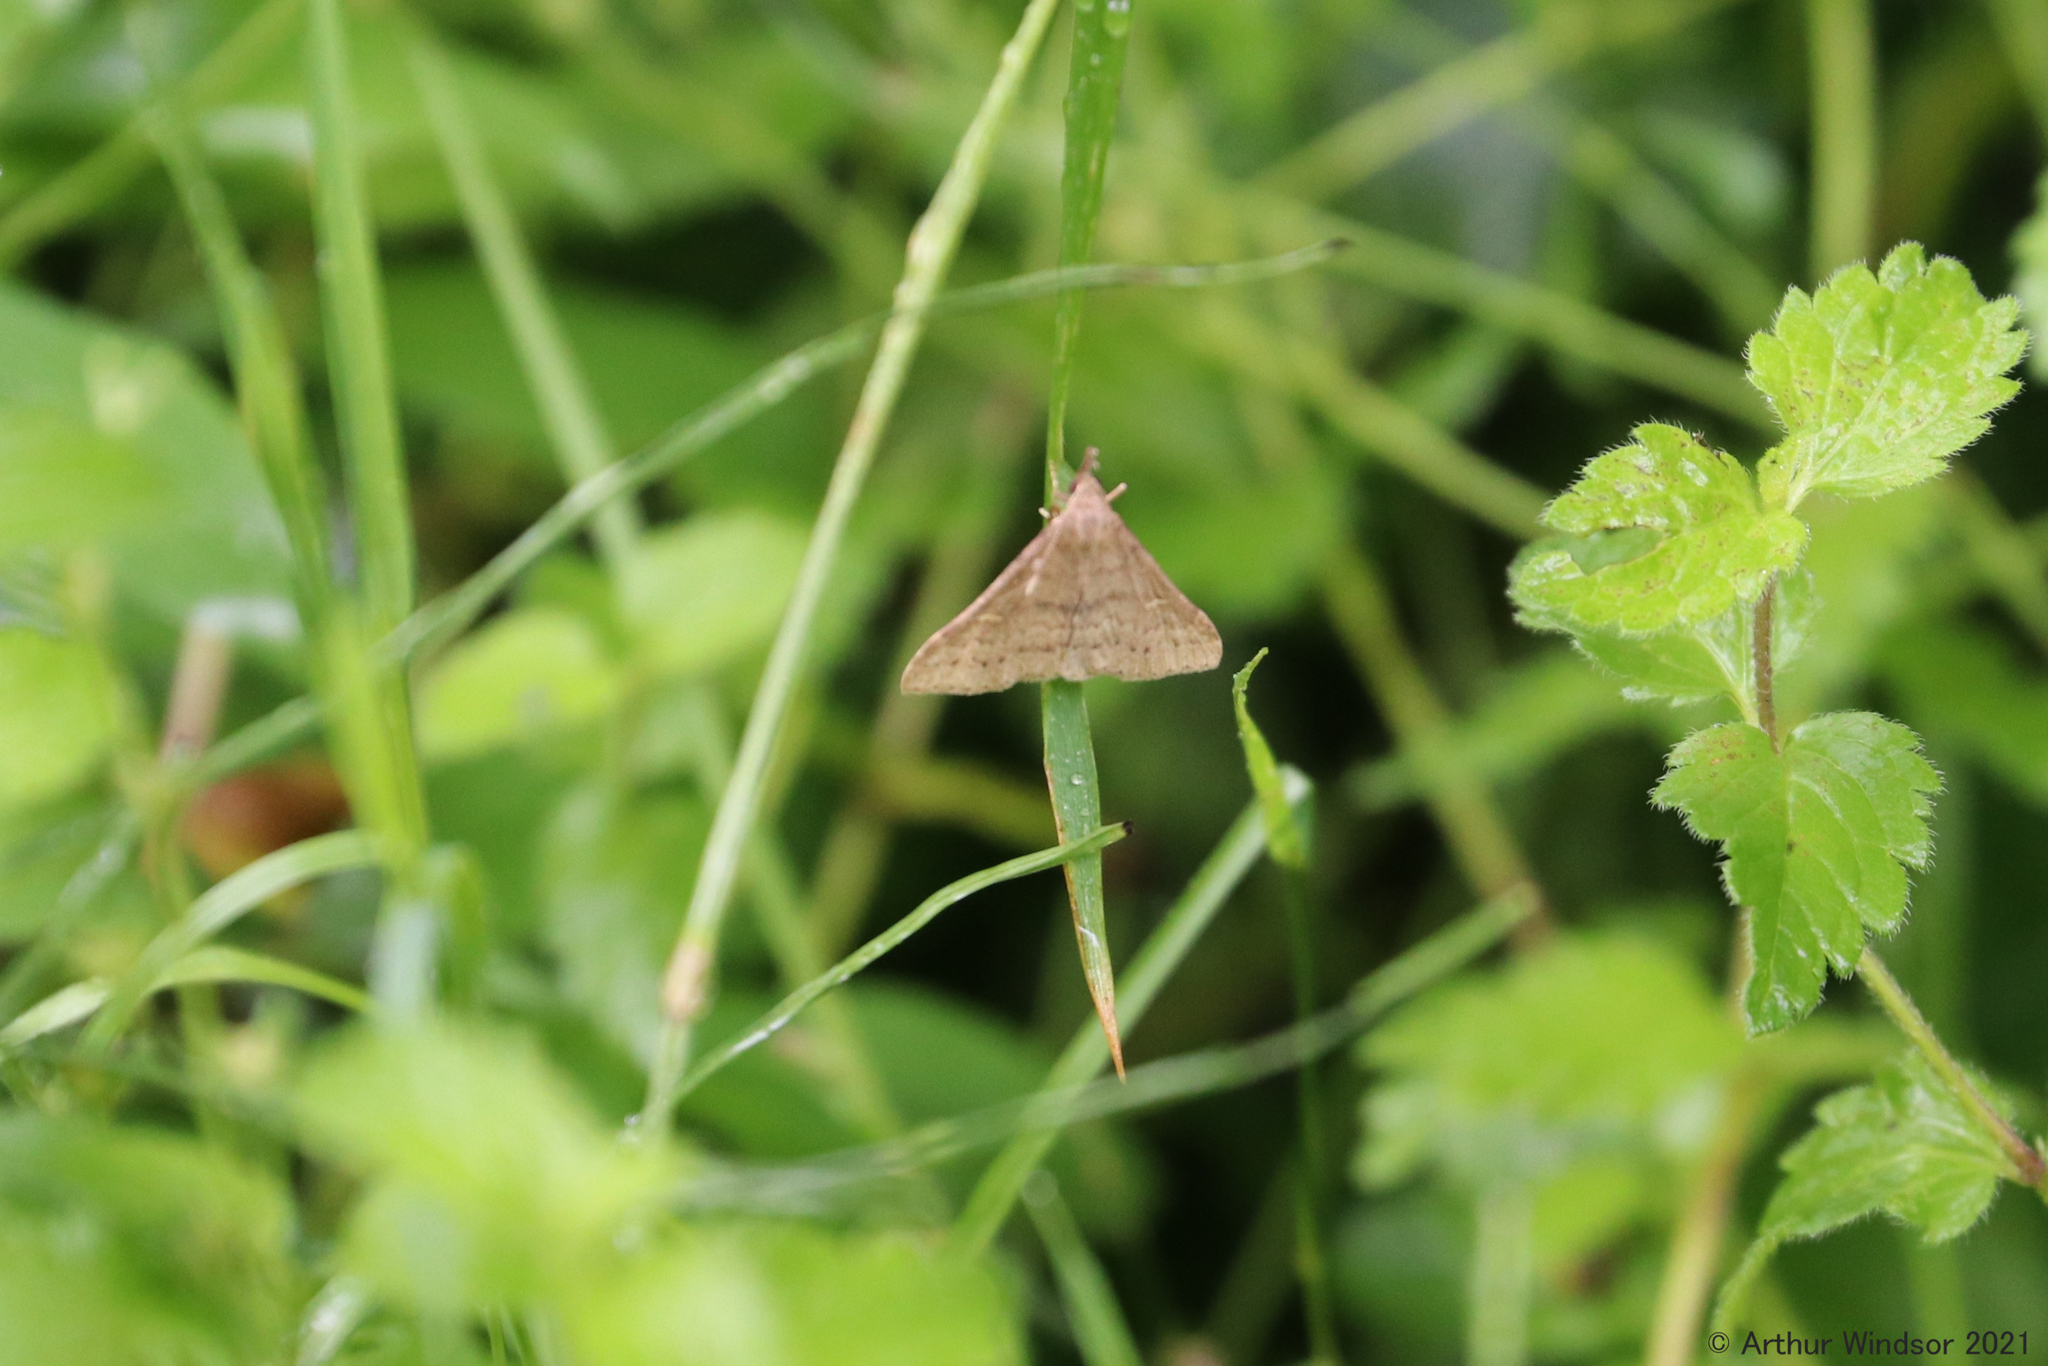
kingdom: Animalia
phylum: Arthropoda
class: Insecta
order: Lepidoptera
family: Erebidae
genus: Renia
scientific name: Renia adspergillus
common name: Speckled renia moth
